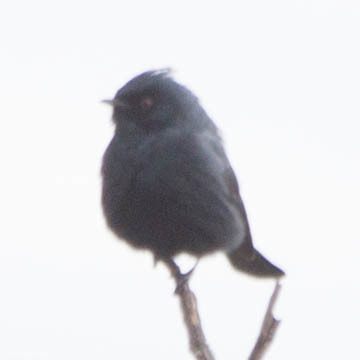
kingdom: Animalia
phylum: Chordata
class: Aves
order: Passeriformes
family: Ptilogonatidae
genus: Phainopepla
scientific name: Phainopepla nitens
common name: Phainopepla
